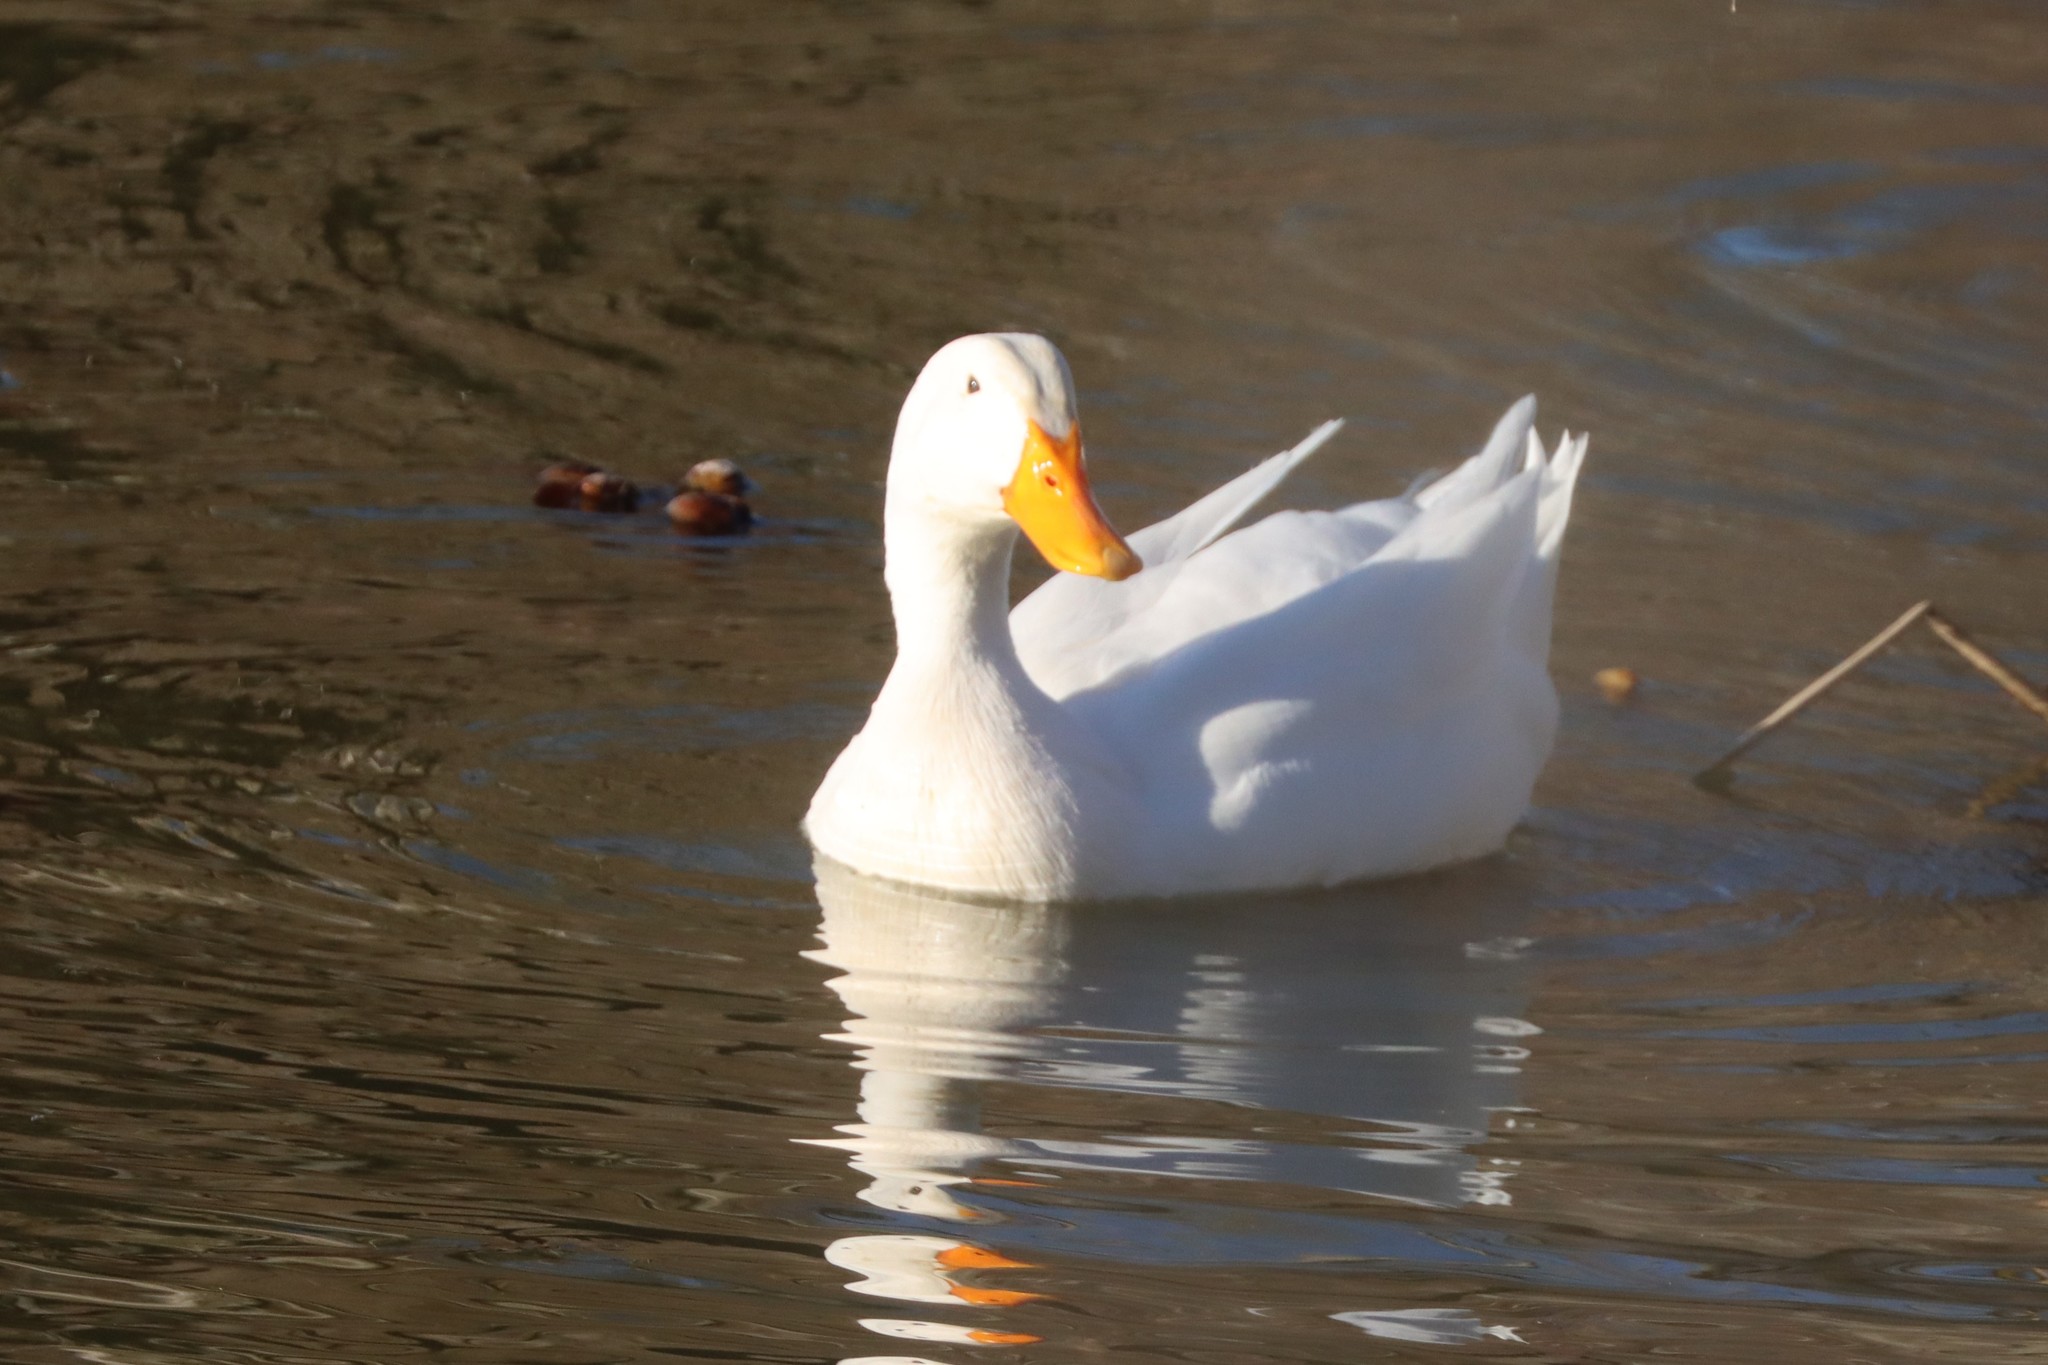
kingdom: Animalia
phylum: Chordata
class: Aves
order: Anseriformes
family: Anatidae
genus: Anas
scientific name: Anas platyrhynchos
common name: Mallard
